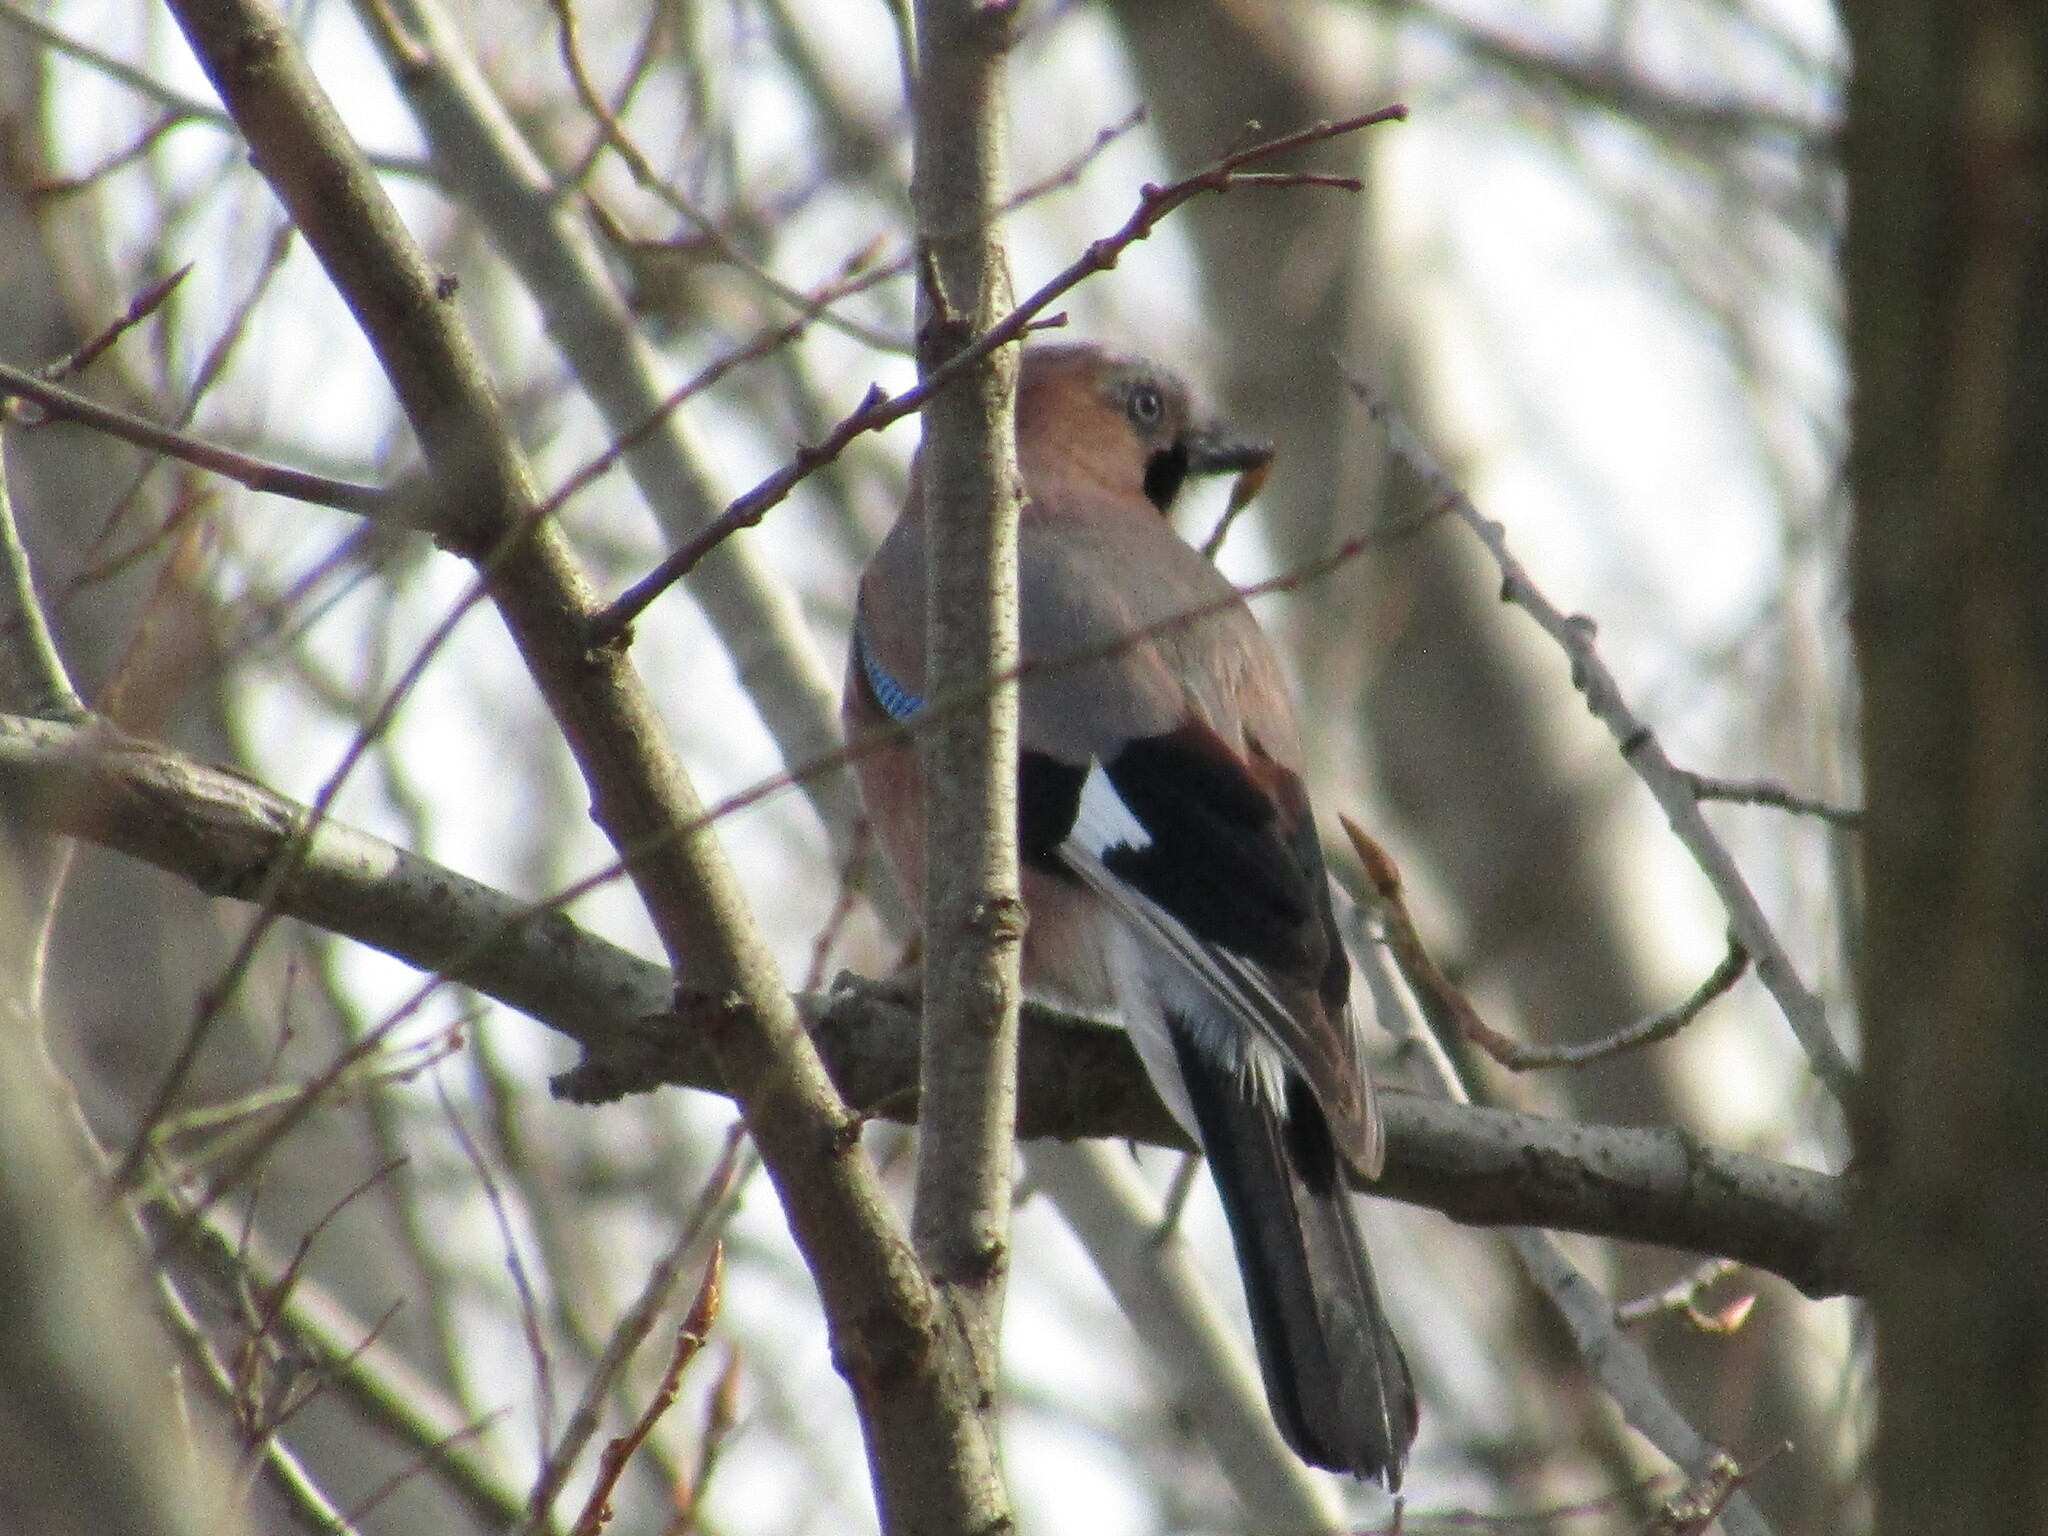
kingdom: Animalia
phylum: Chordata
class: Aves
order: Passeriformes
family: Corvidae
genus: Garrulus
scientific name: Garrulus glandarius
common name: Eurasian jay
